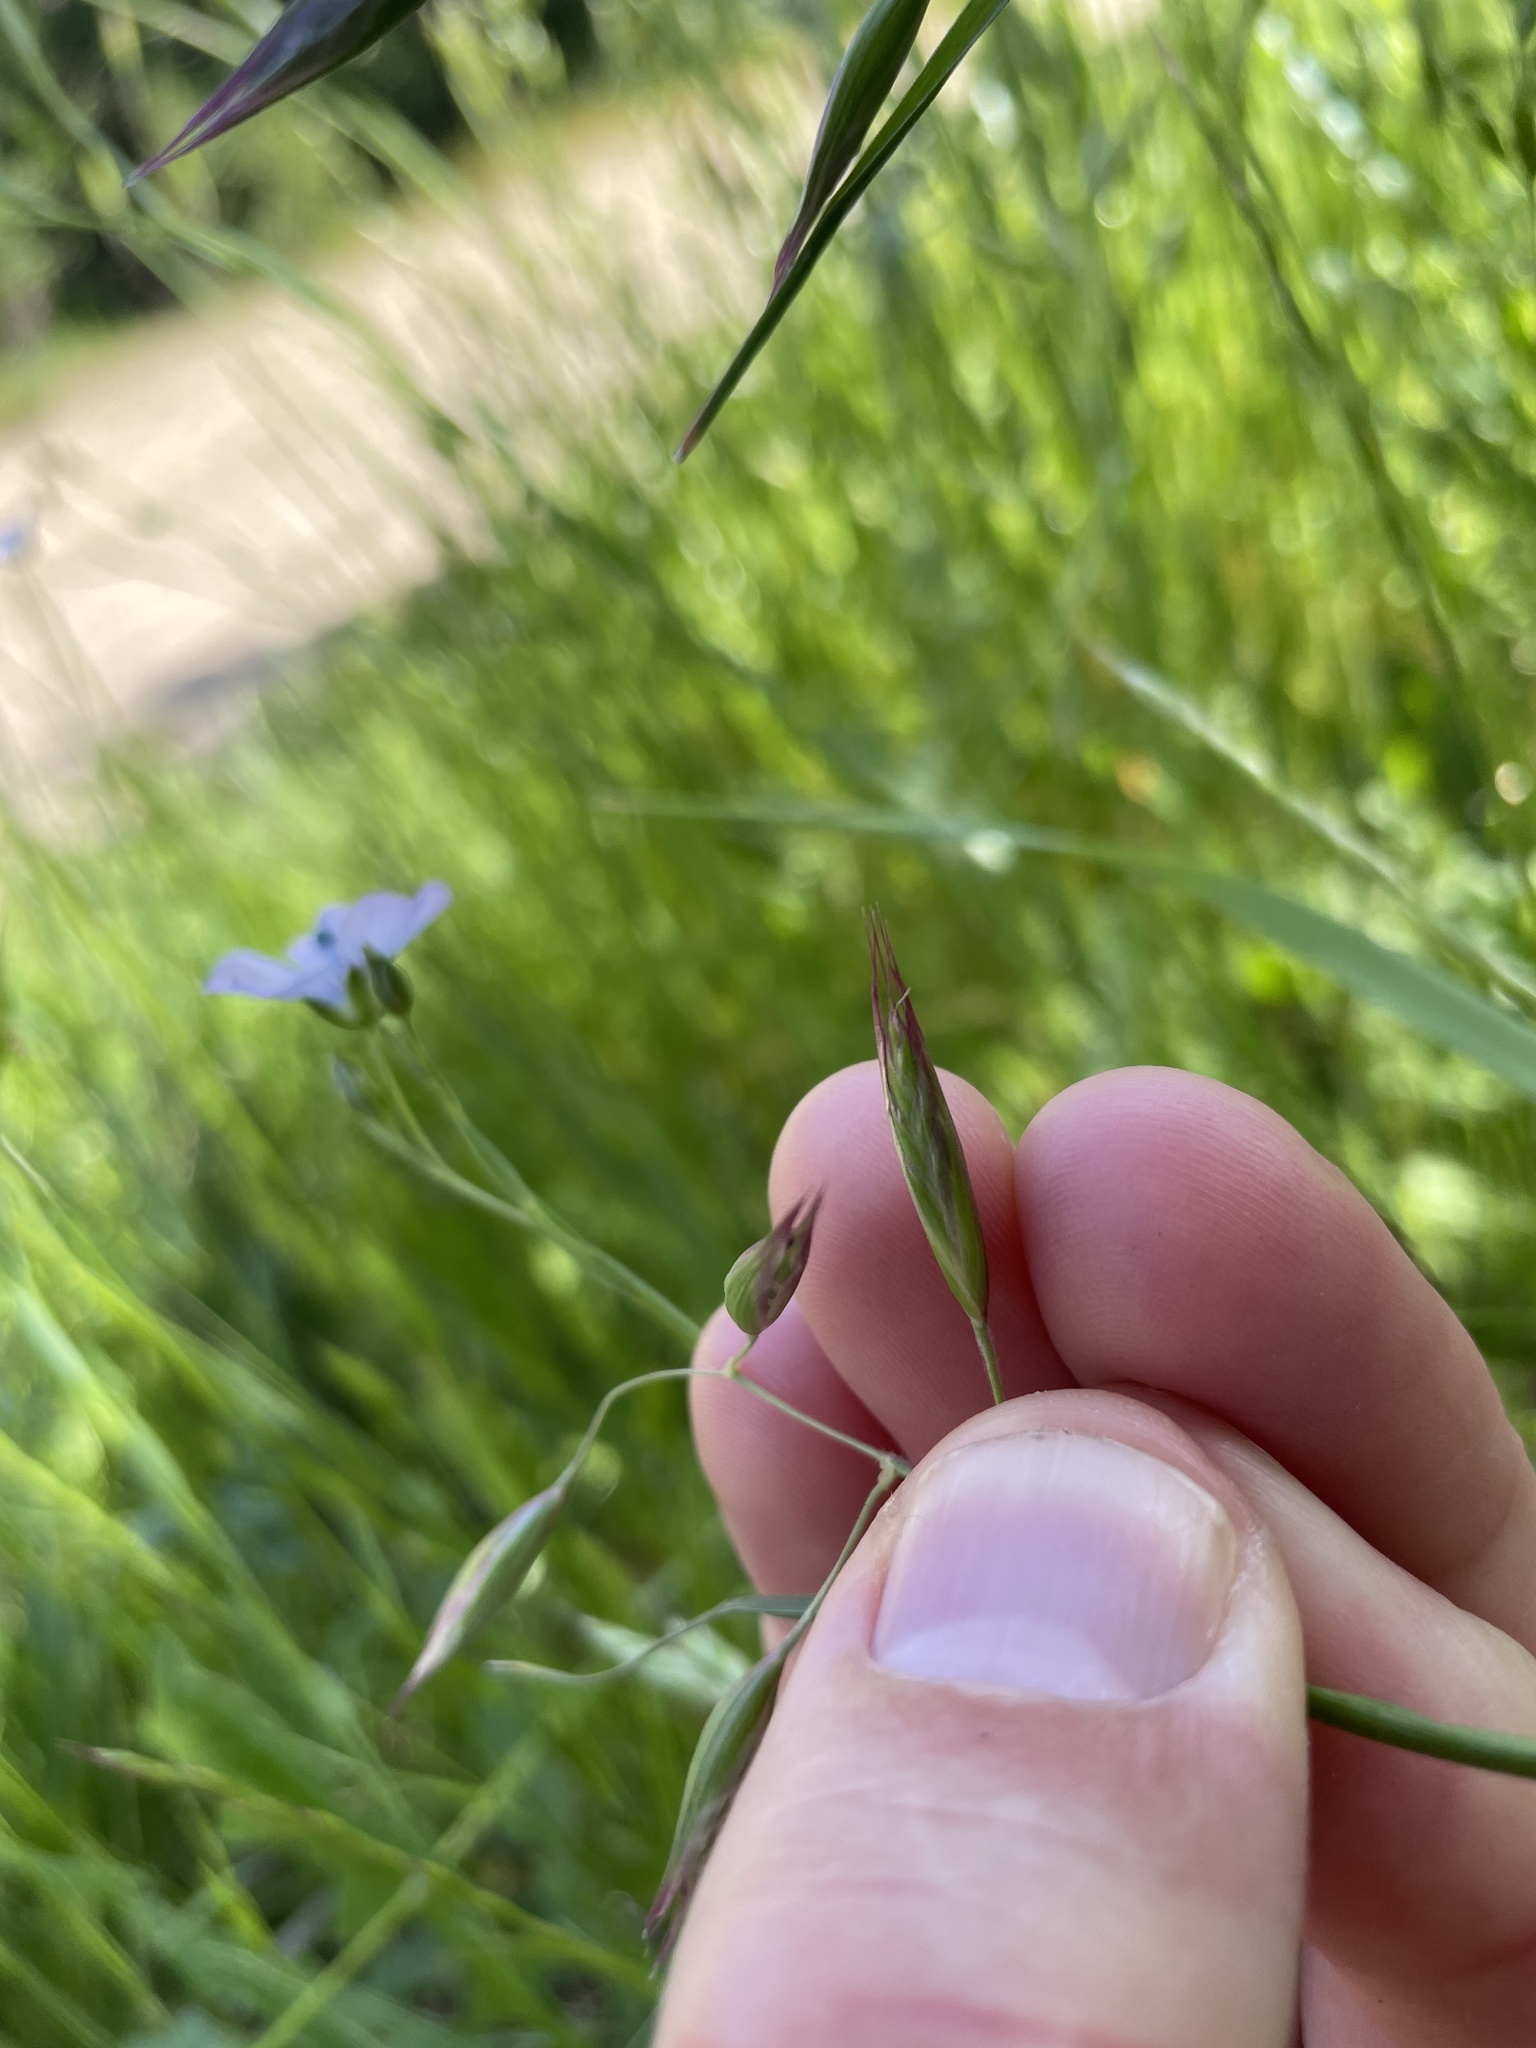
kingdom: Plantae
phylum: Tracheophyta
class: Liliopsida
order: Poales
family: Poaceae
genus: Danthonia
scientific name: Danthonia californica
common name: California oat grass
